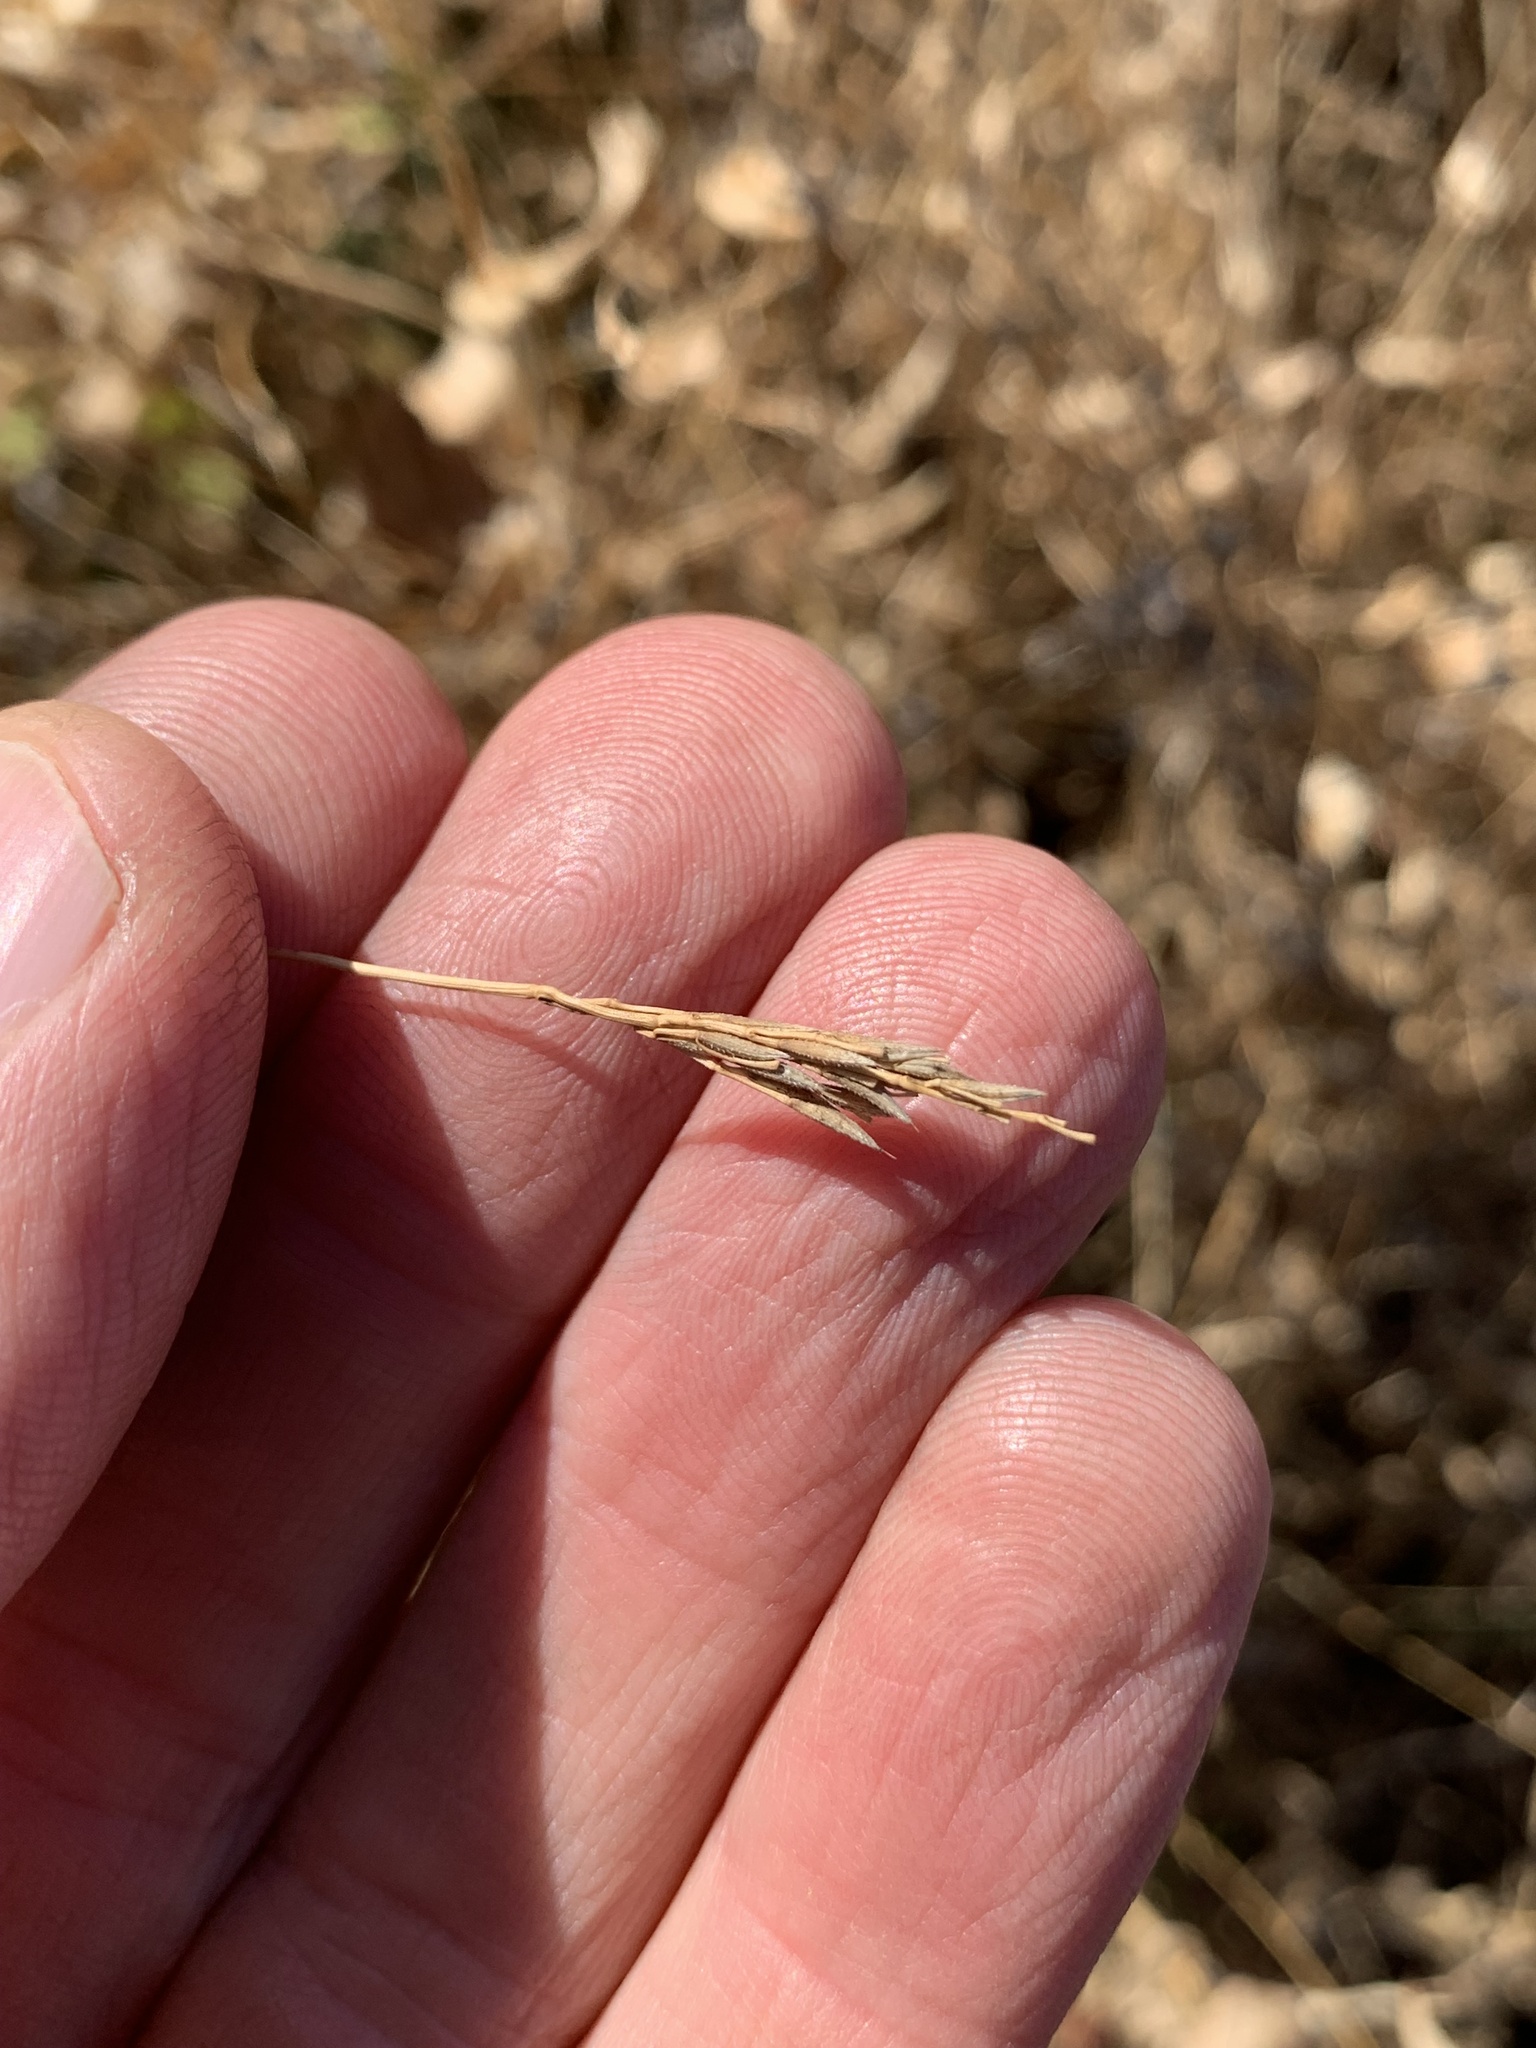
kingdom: Plantae
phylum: Tracheophyta
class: Liliopsida
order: Poales
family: Poaceae
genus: Arthraxon
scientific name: Arthraxon hispidus
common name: Small carpgrass
